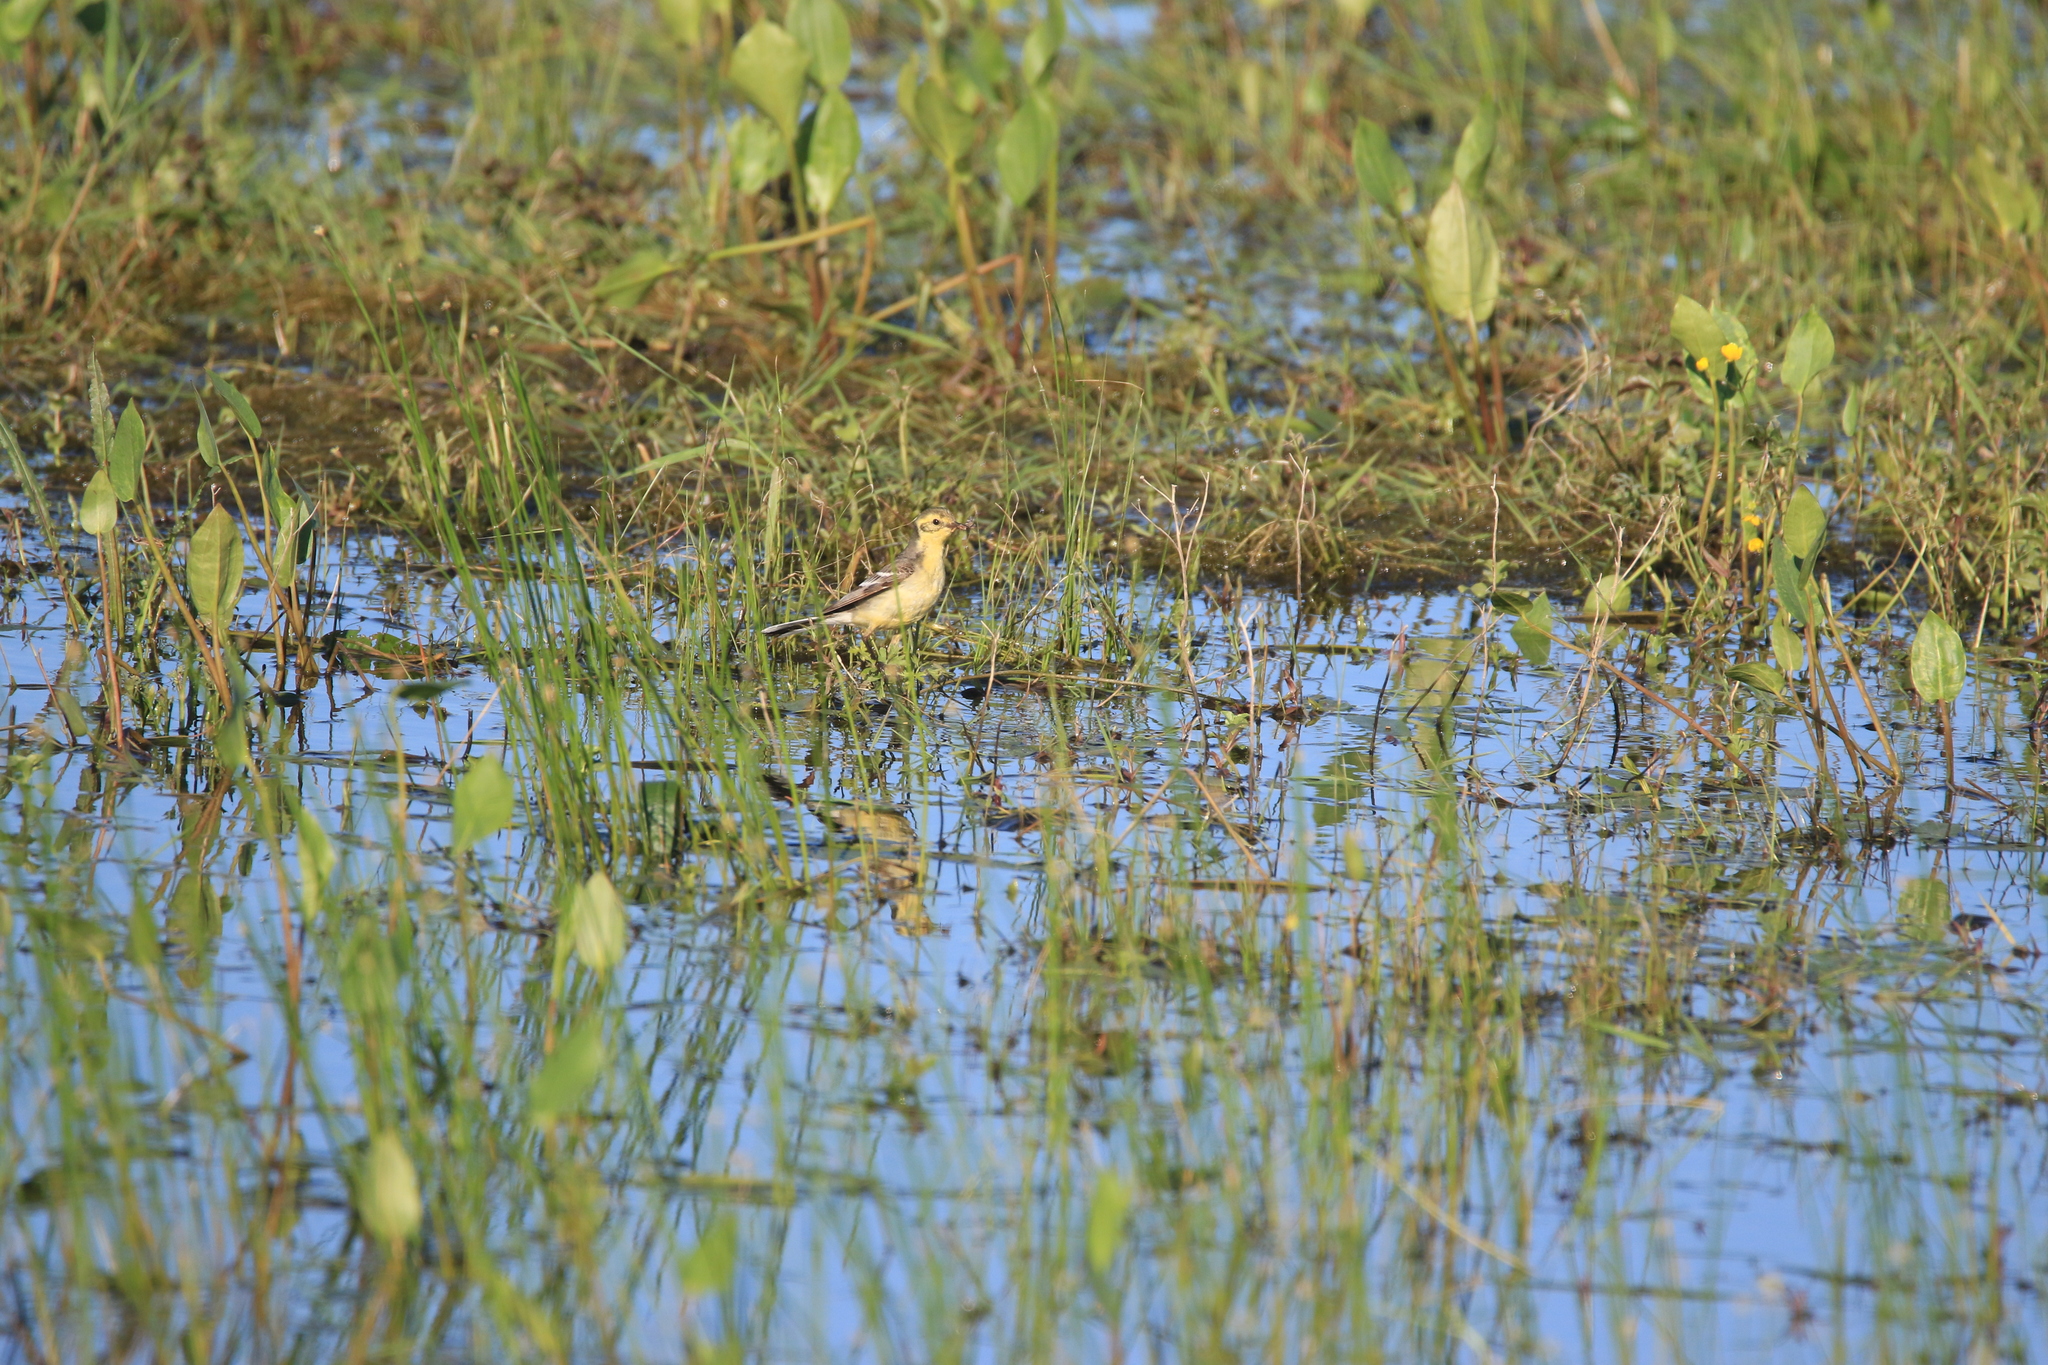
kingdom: Animalia
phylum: Chordata
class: Aves
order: Passeriformes
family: Motacillidae
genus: Motacilla
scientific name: Motacilla citreola
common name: Citrine wagtail
